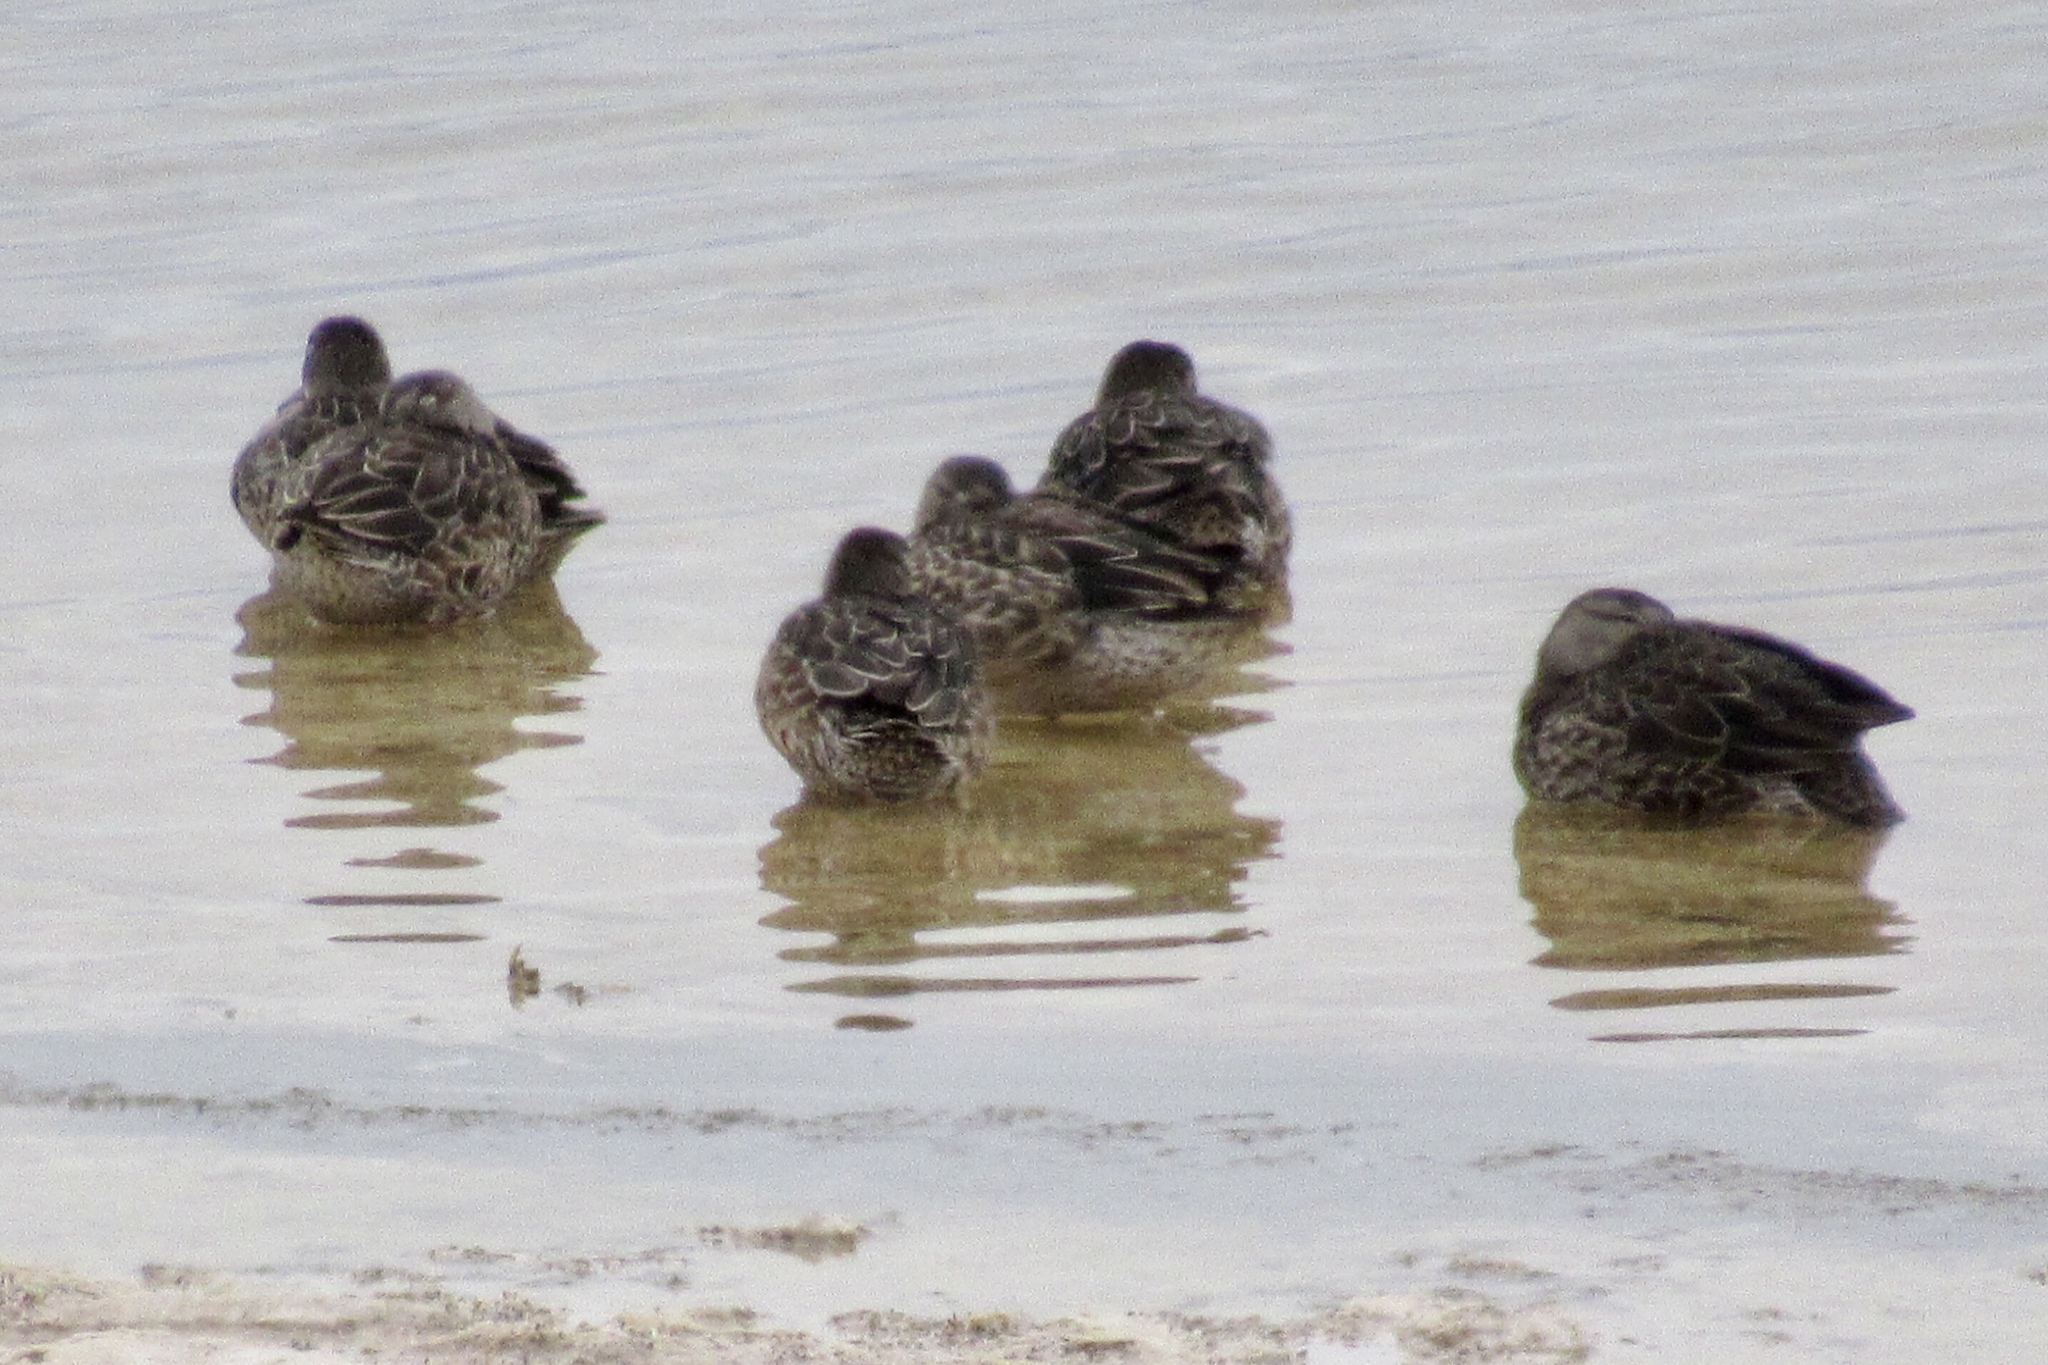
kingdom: Animalia
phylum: Chordata
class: Aves
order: Anseriformes
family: Anatidae
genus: Spatula
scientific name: Spatula discors
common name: Blue-winged teal
